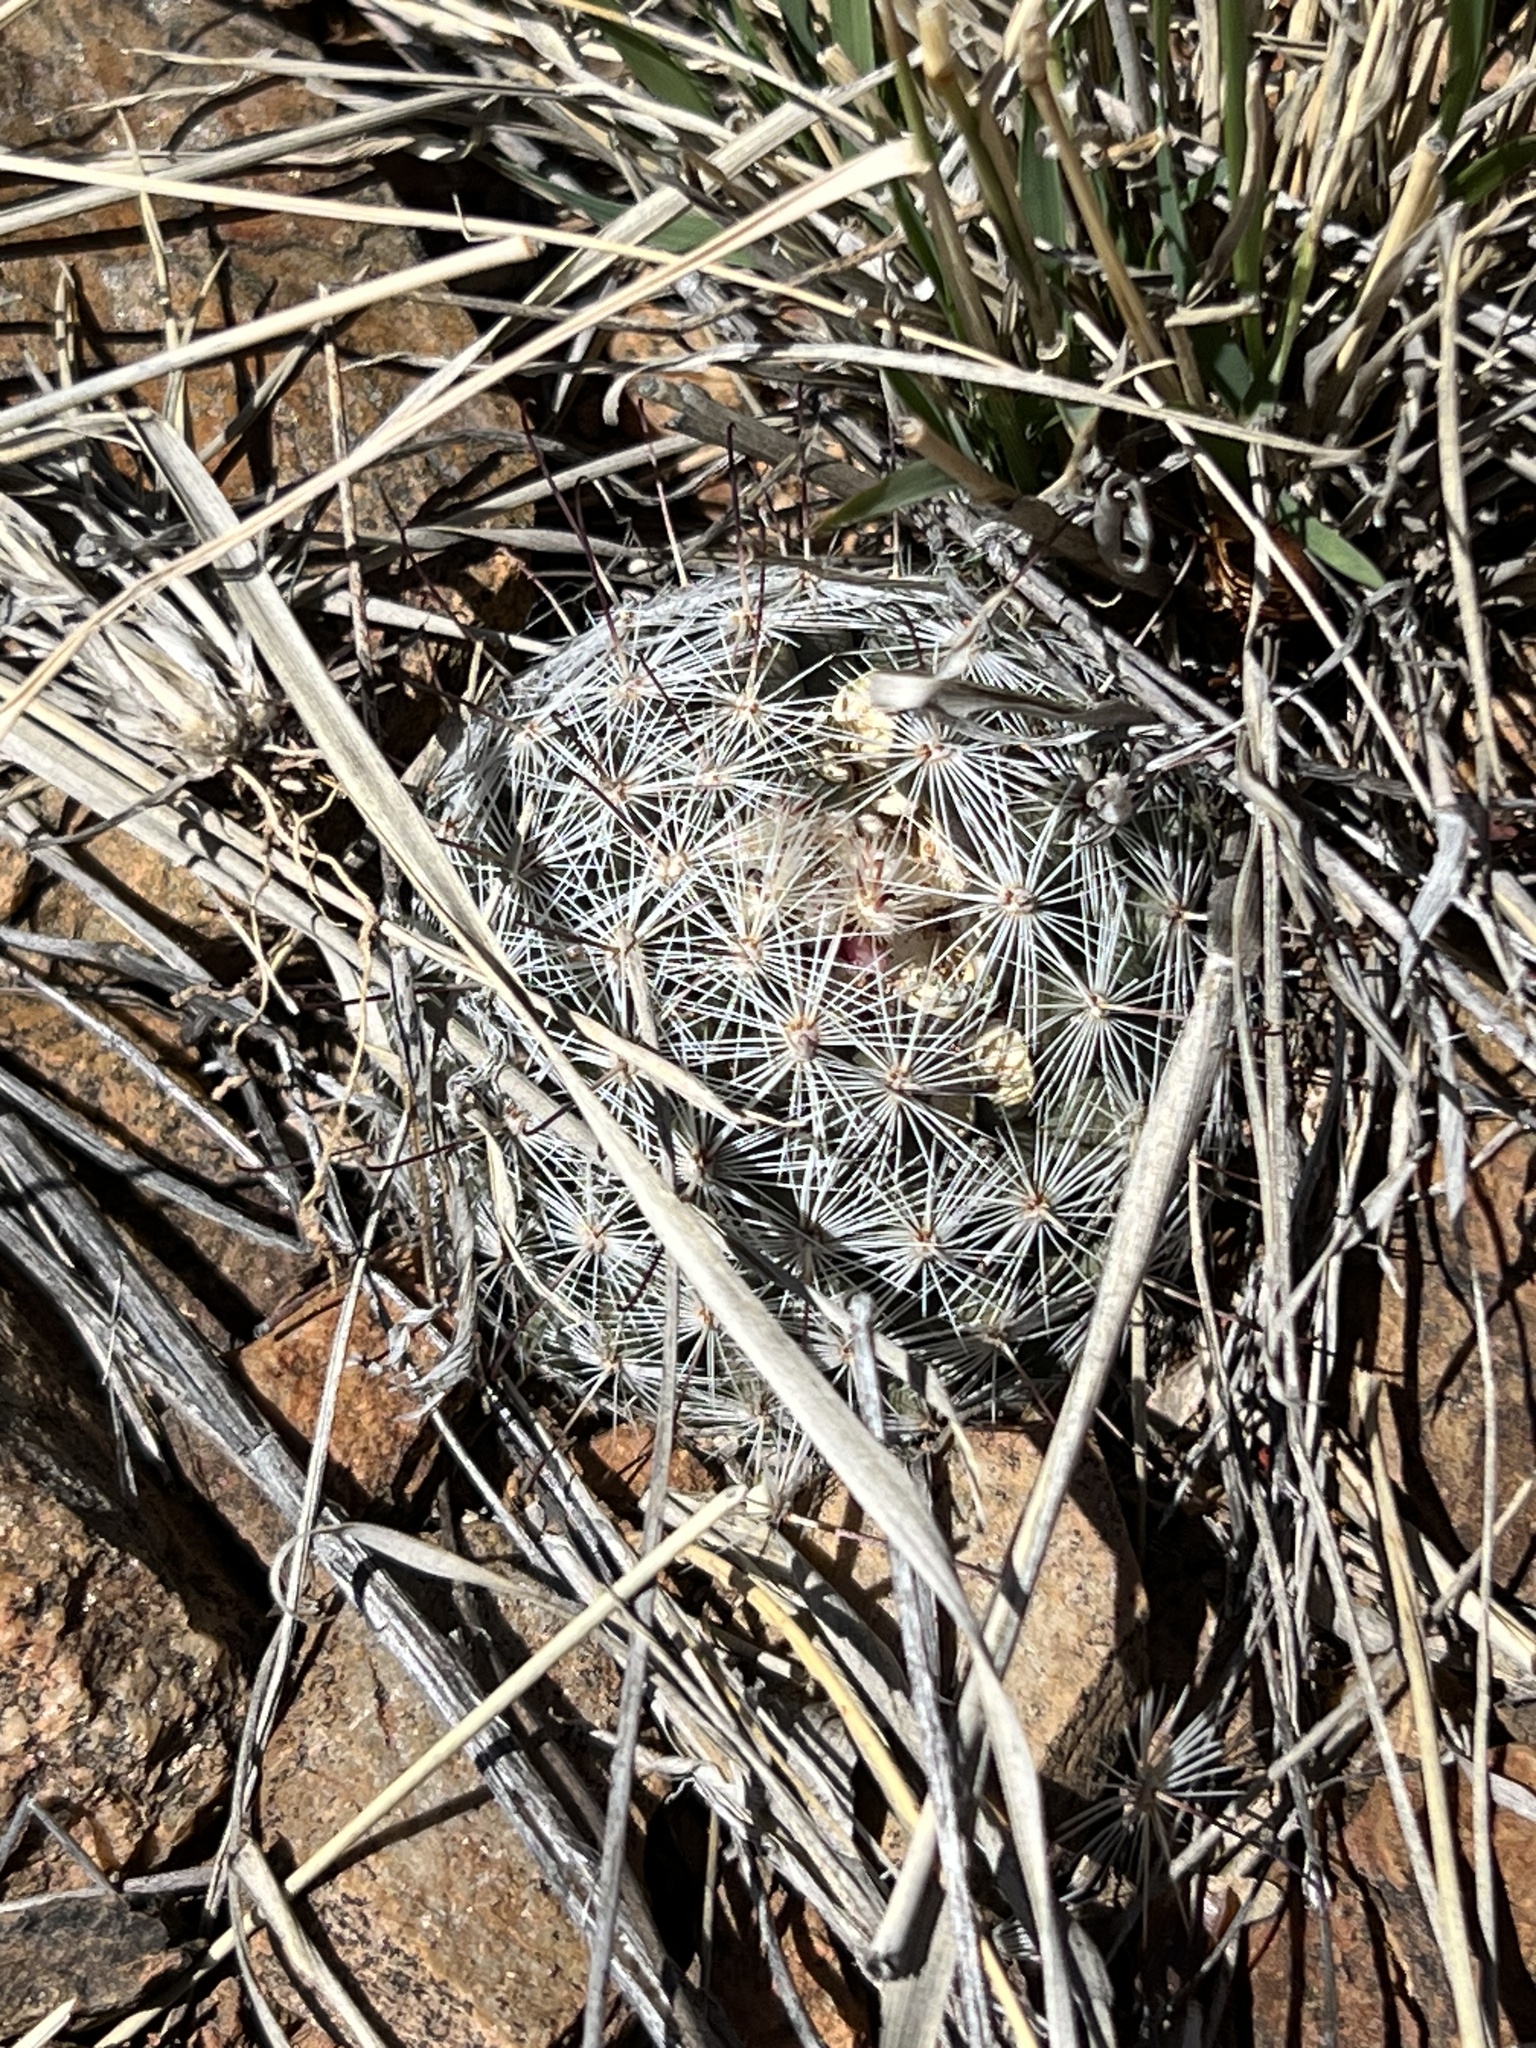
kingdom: Plantae
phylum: Tracheophyta
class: Magnoliopsida
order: Caryophyllales
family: Cactaceae
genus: Cochemiea
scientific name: Cochemiea grahamii
